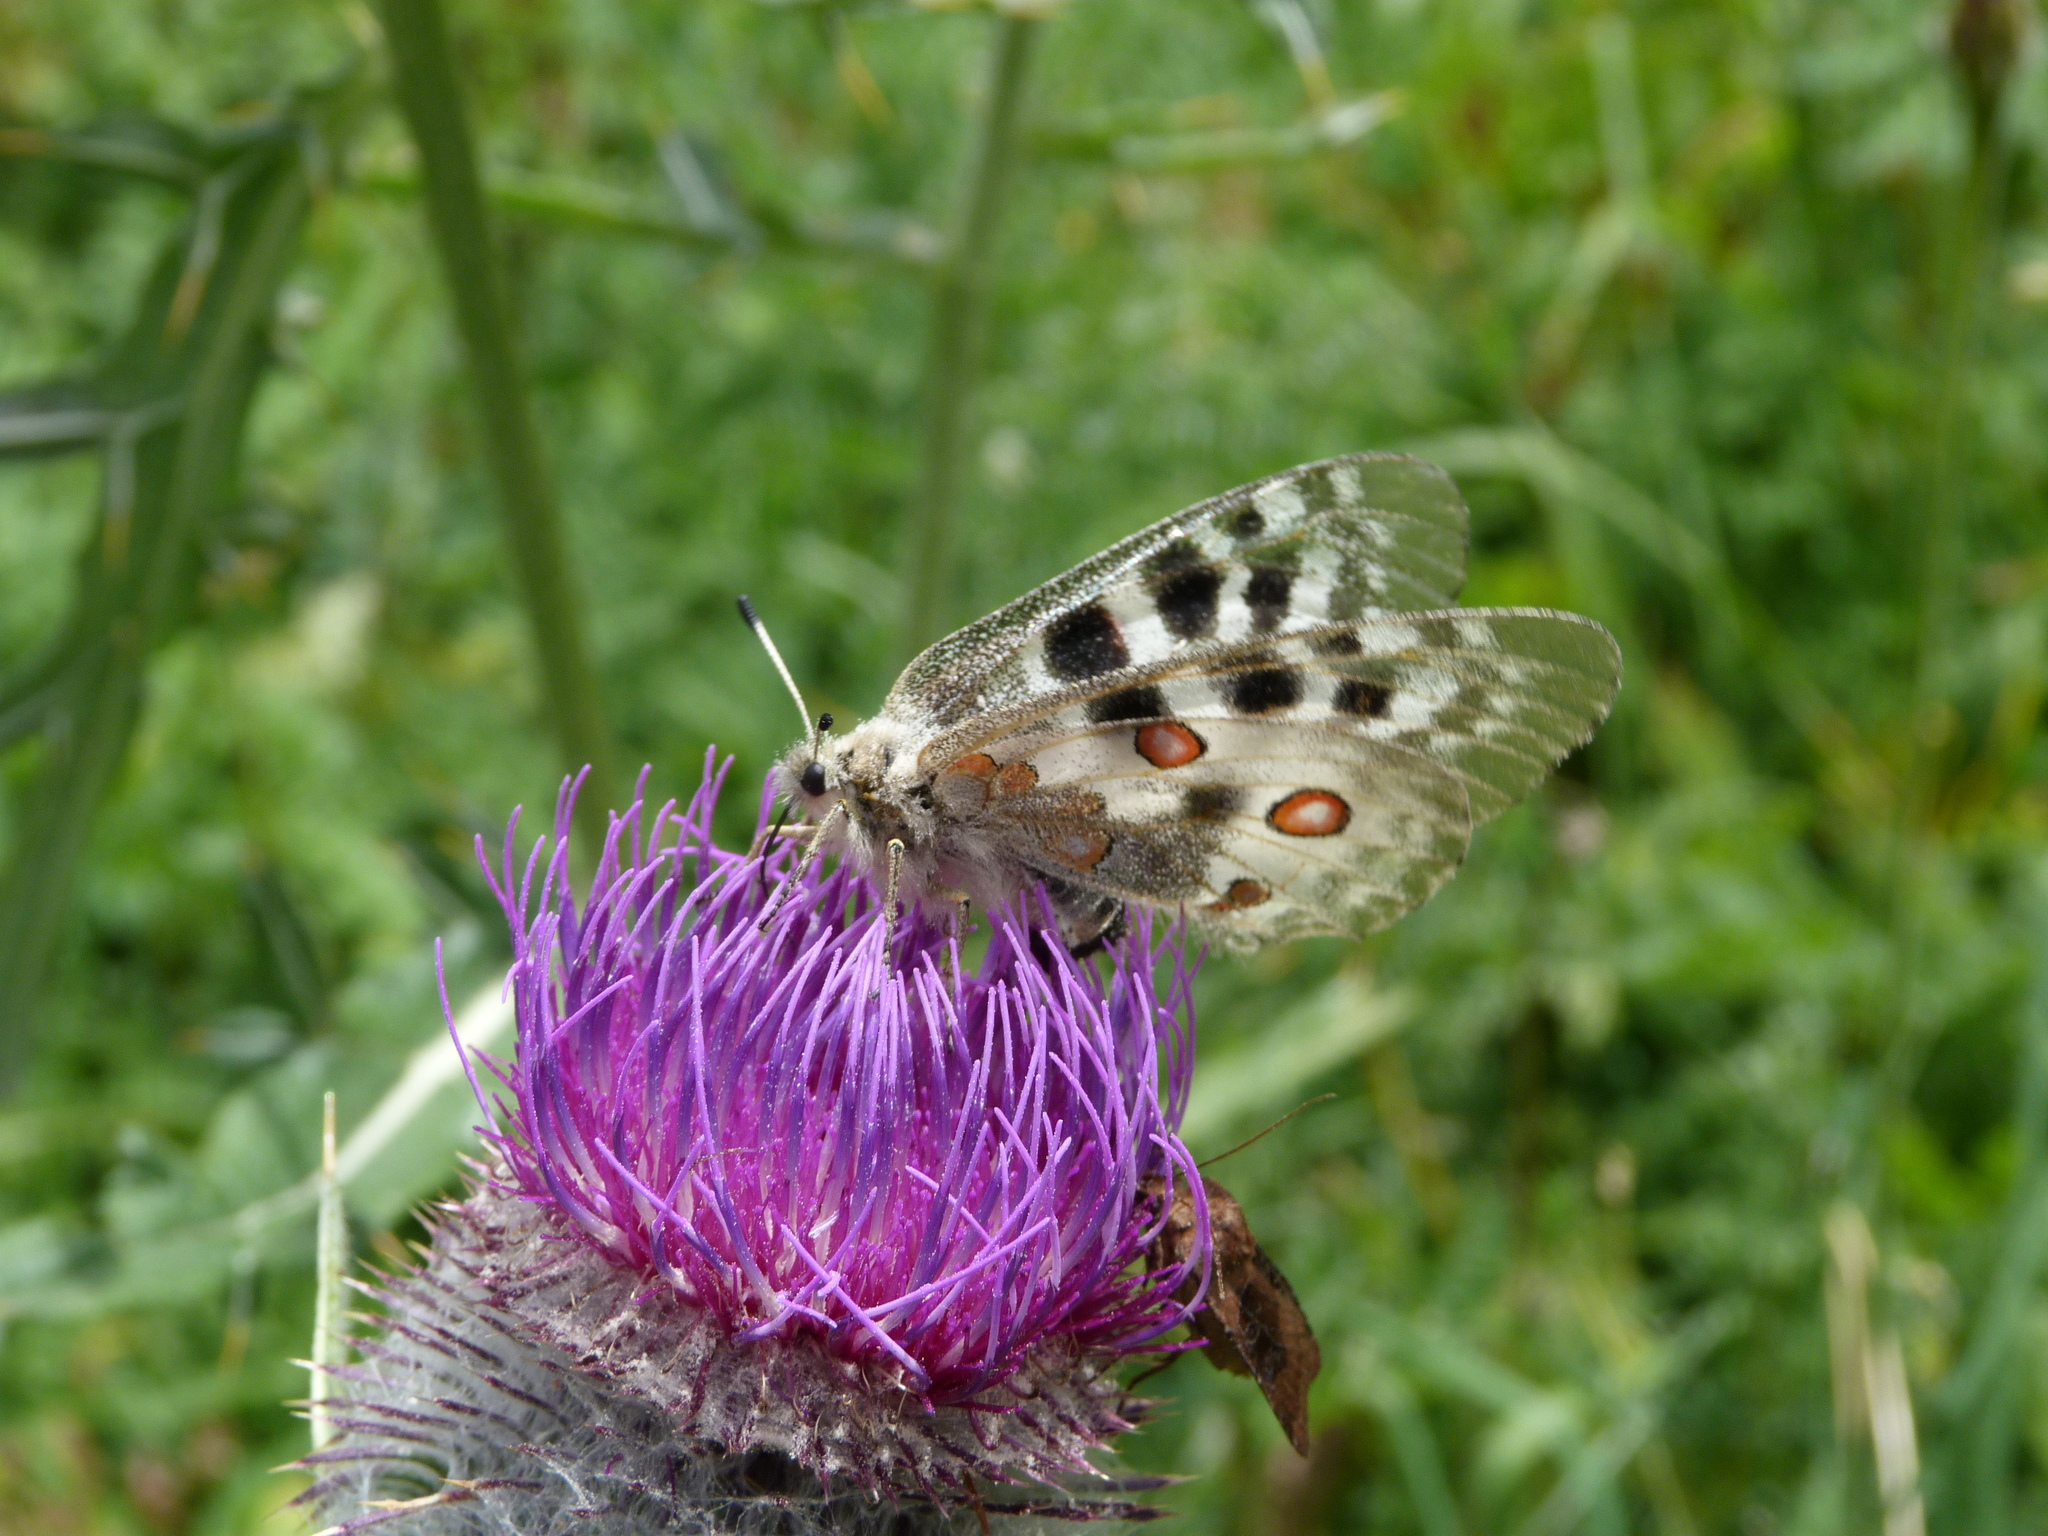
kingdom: Animalia
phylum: Arthropoda
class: Insecta
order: Lepidoptera
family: Papilionidae
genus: Parnassius
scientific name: Parnassius apollo
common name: Apollo
